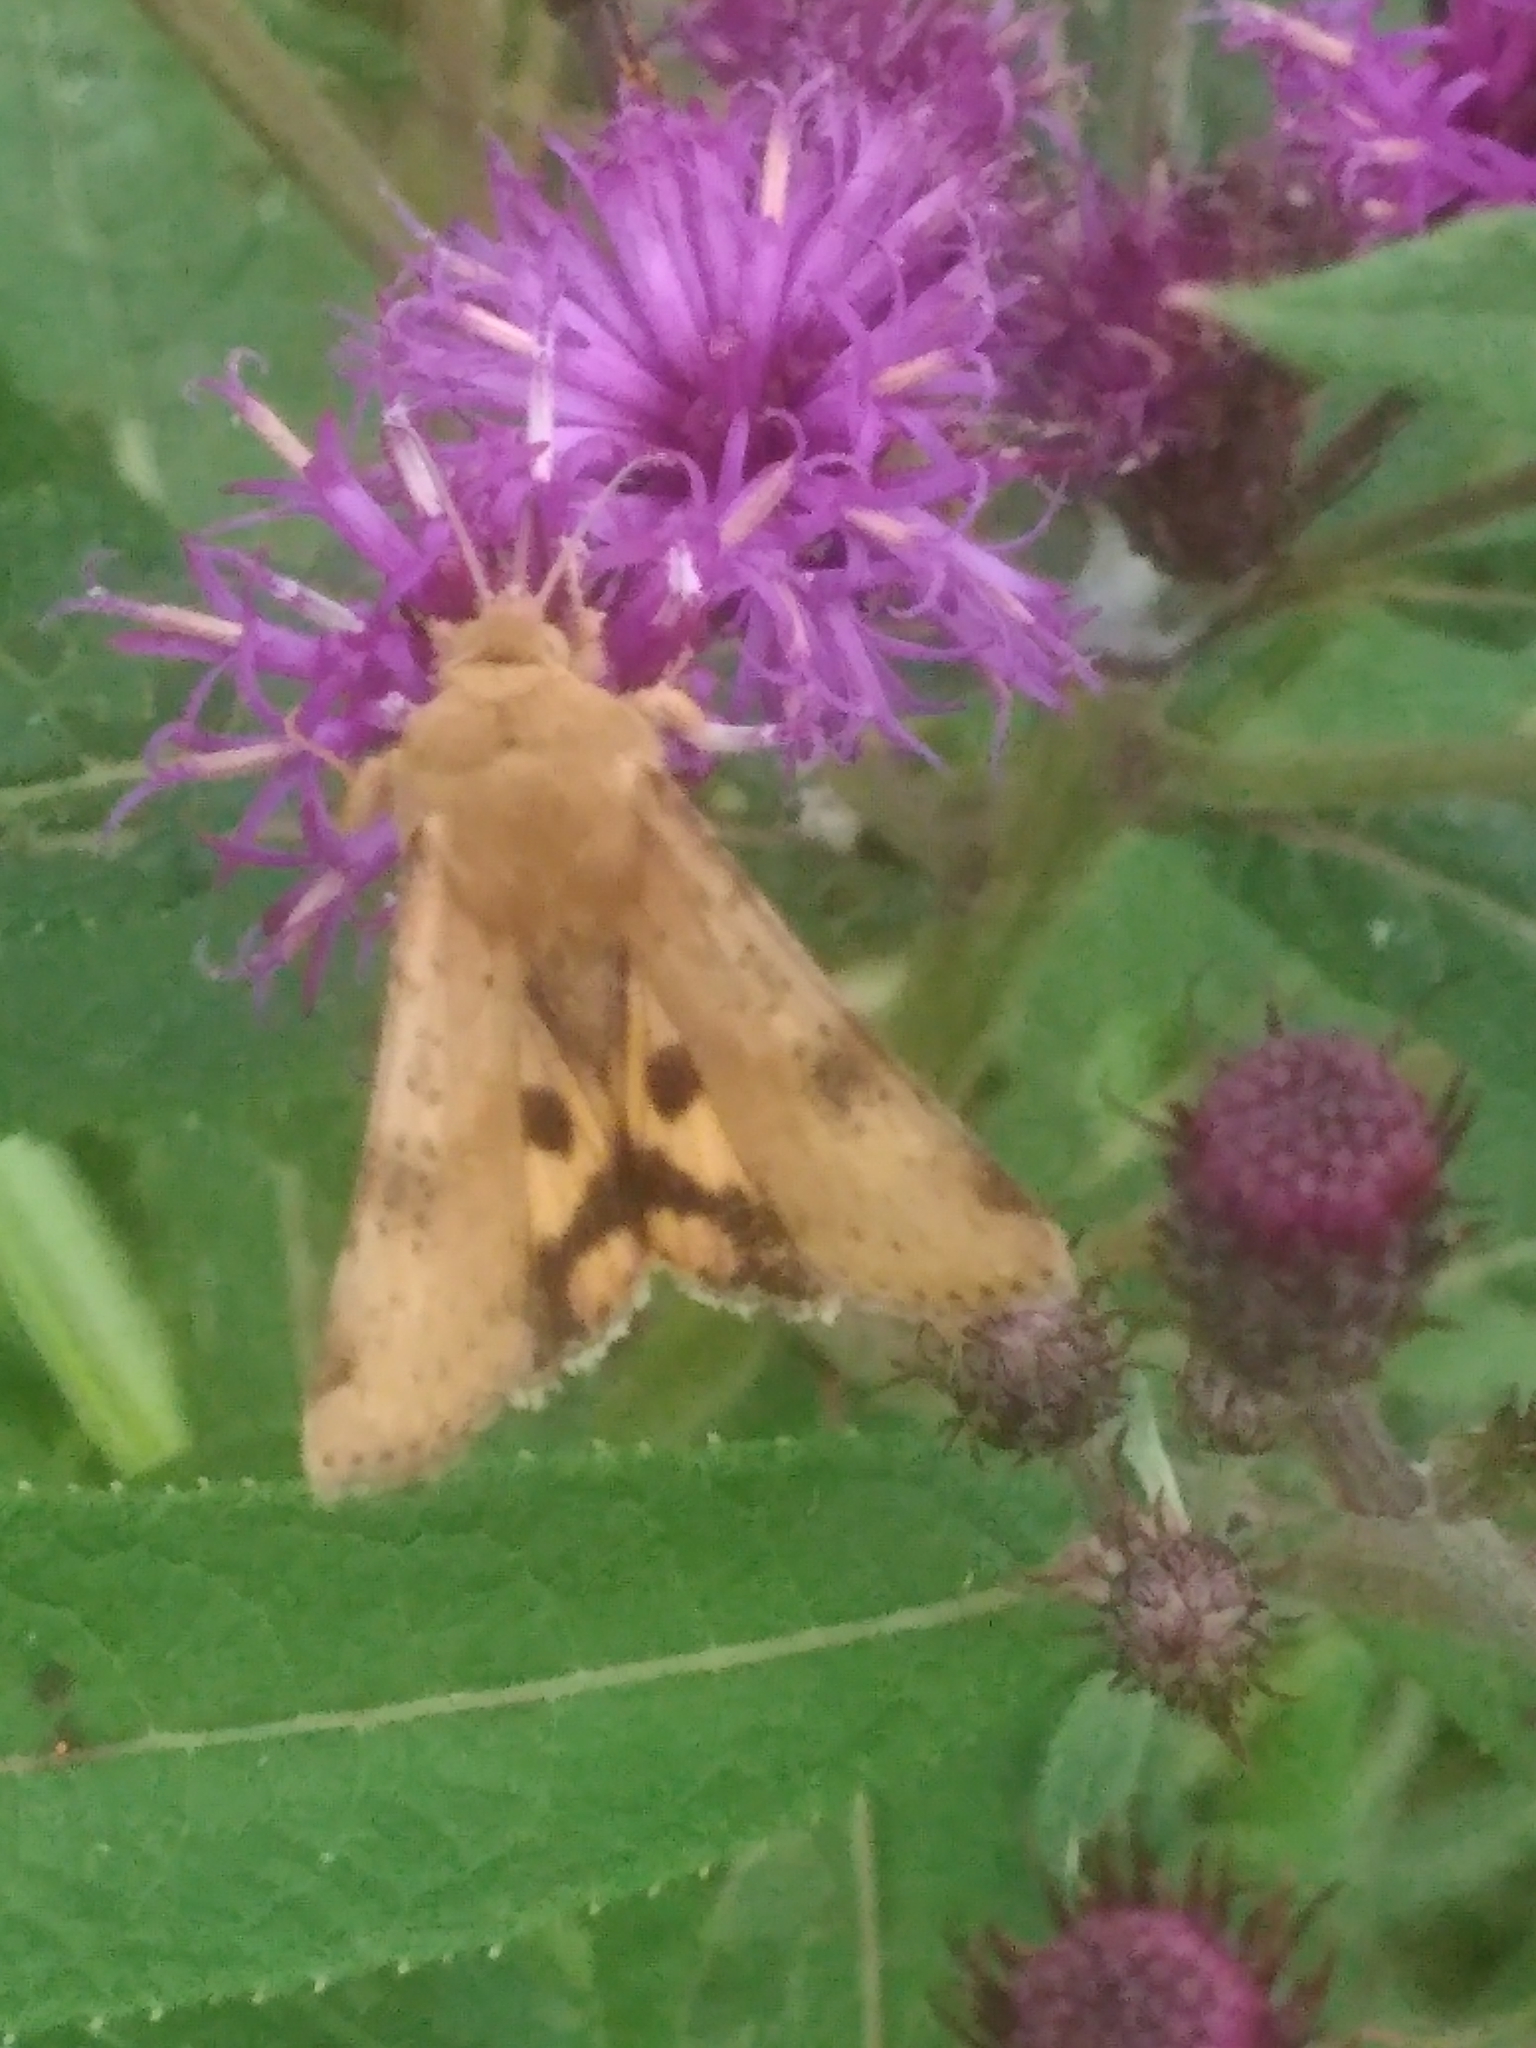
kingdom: Animalia
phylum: Arthropoda
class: Insecta
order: Lepidoptera
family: Noctuidae
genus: Heliothis
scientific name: Heliothis acesias
